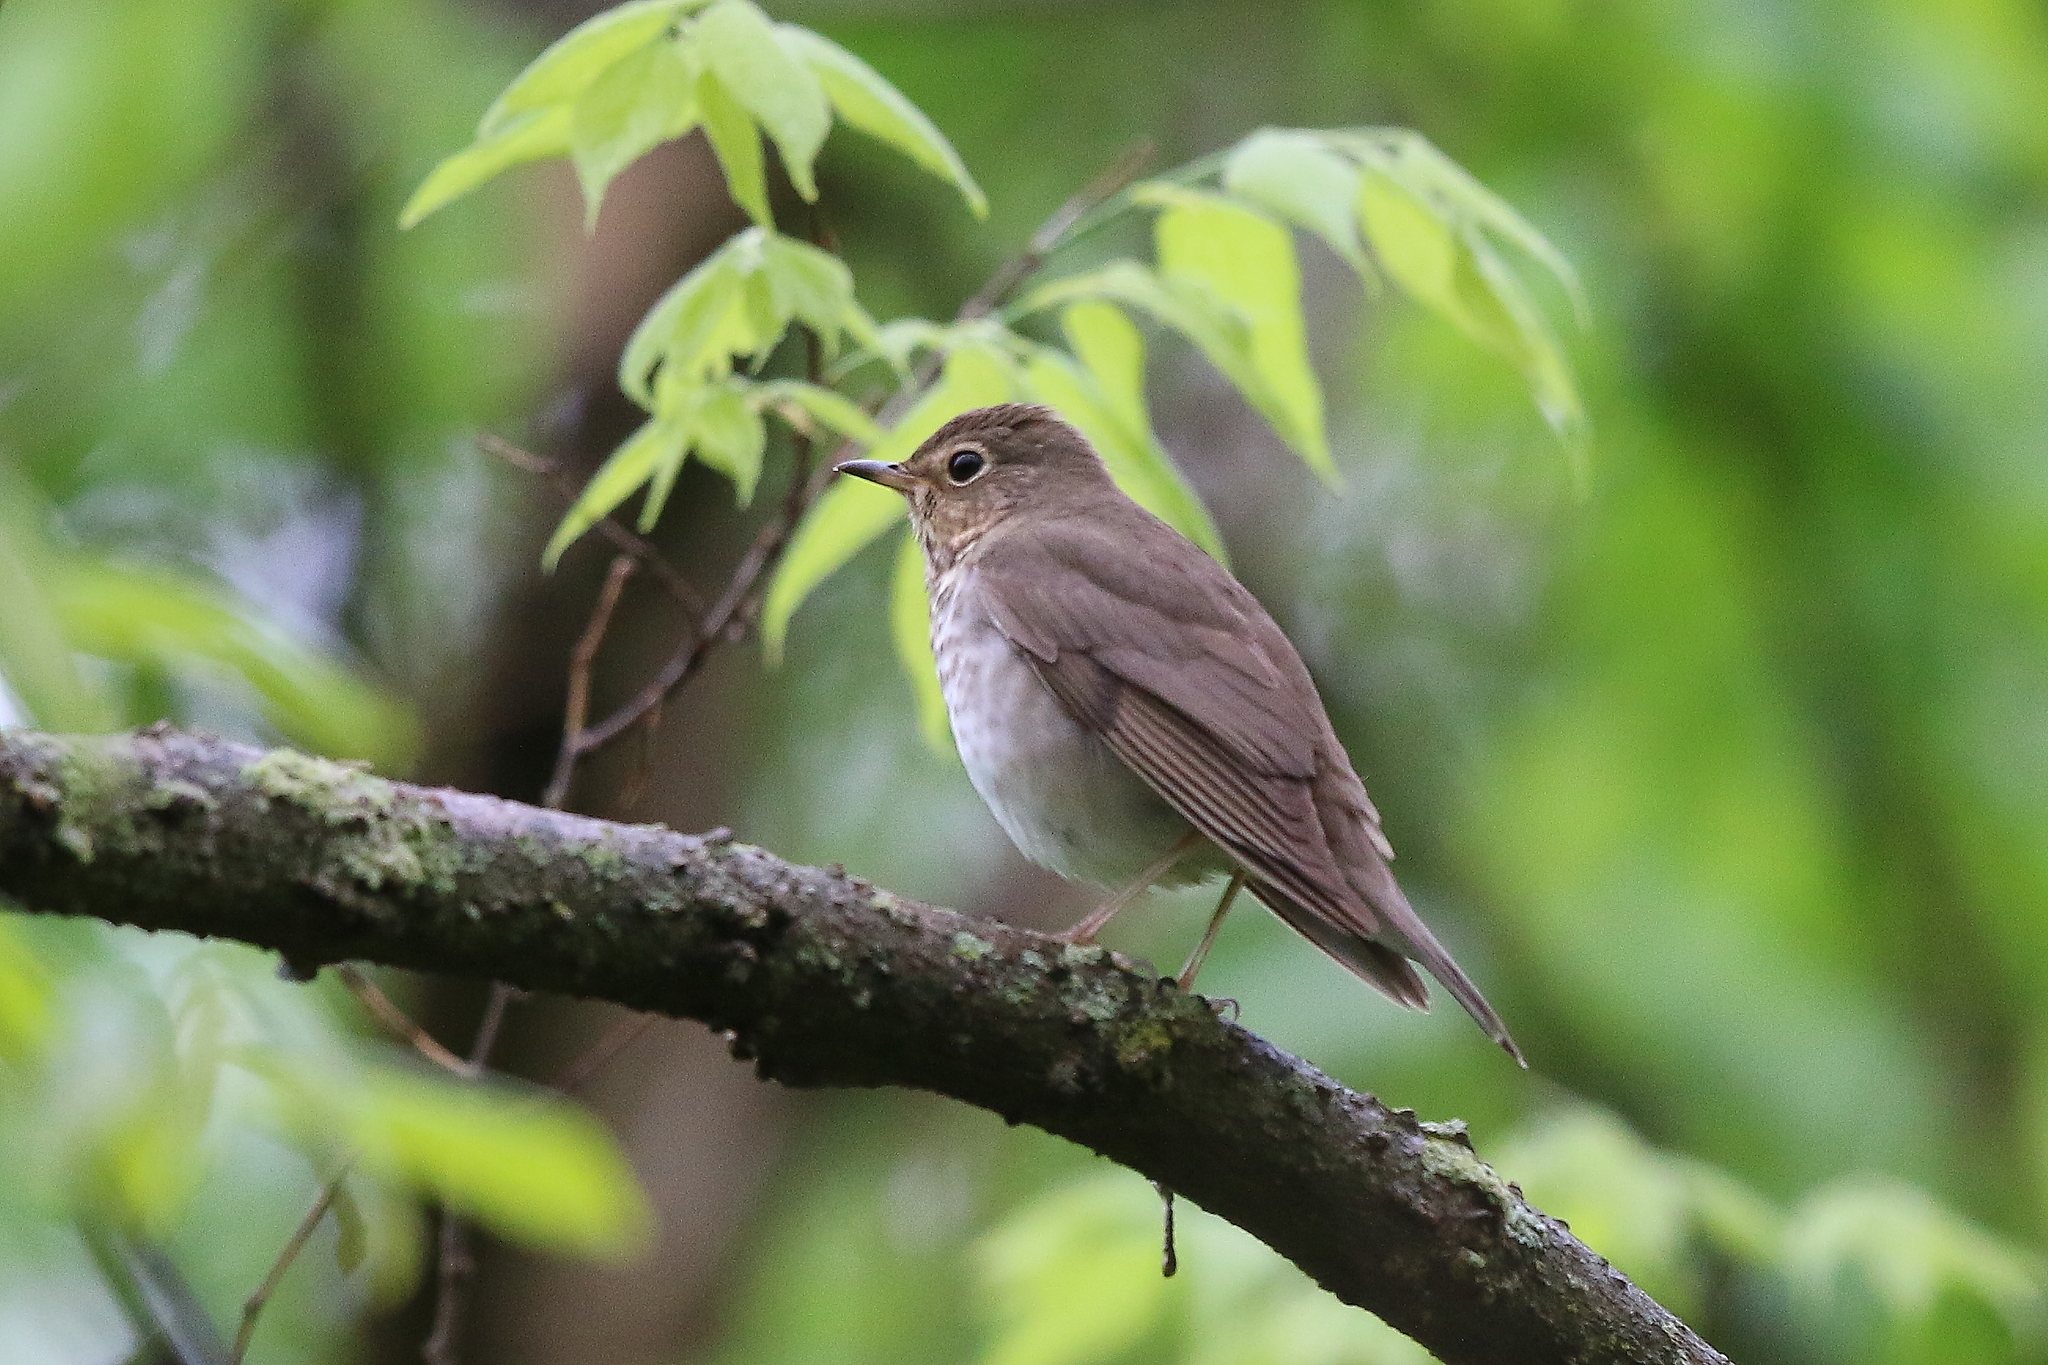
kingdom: Animalia
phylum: Chordata
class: Aves
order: Passeriformes
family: Turdidae
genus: Catharus
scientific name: Catharus ustulatus
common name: Swainson's thrush
